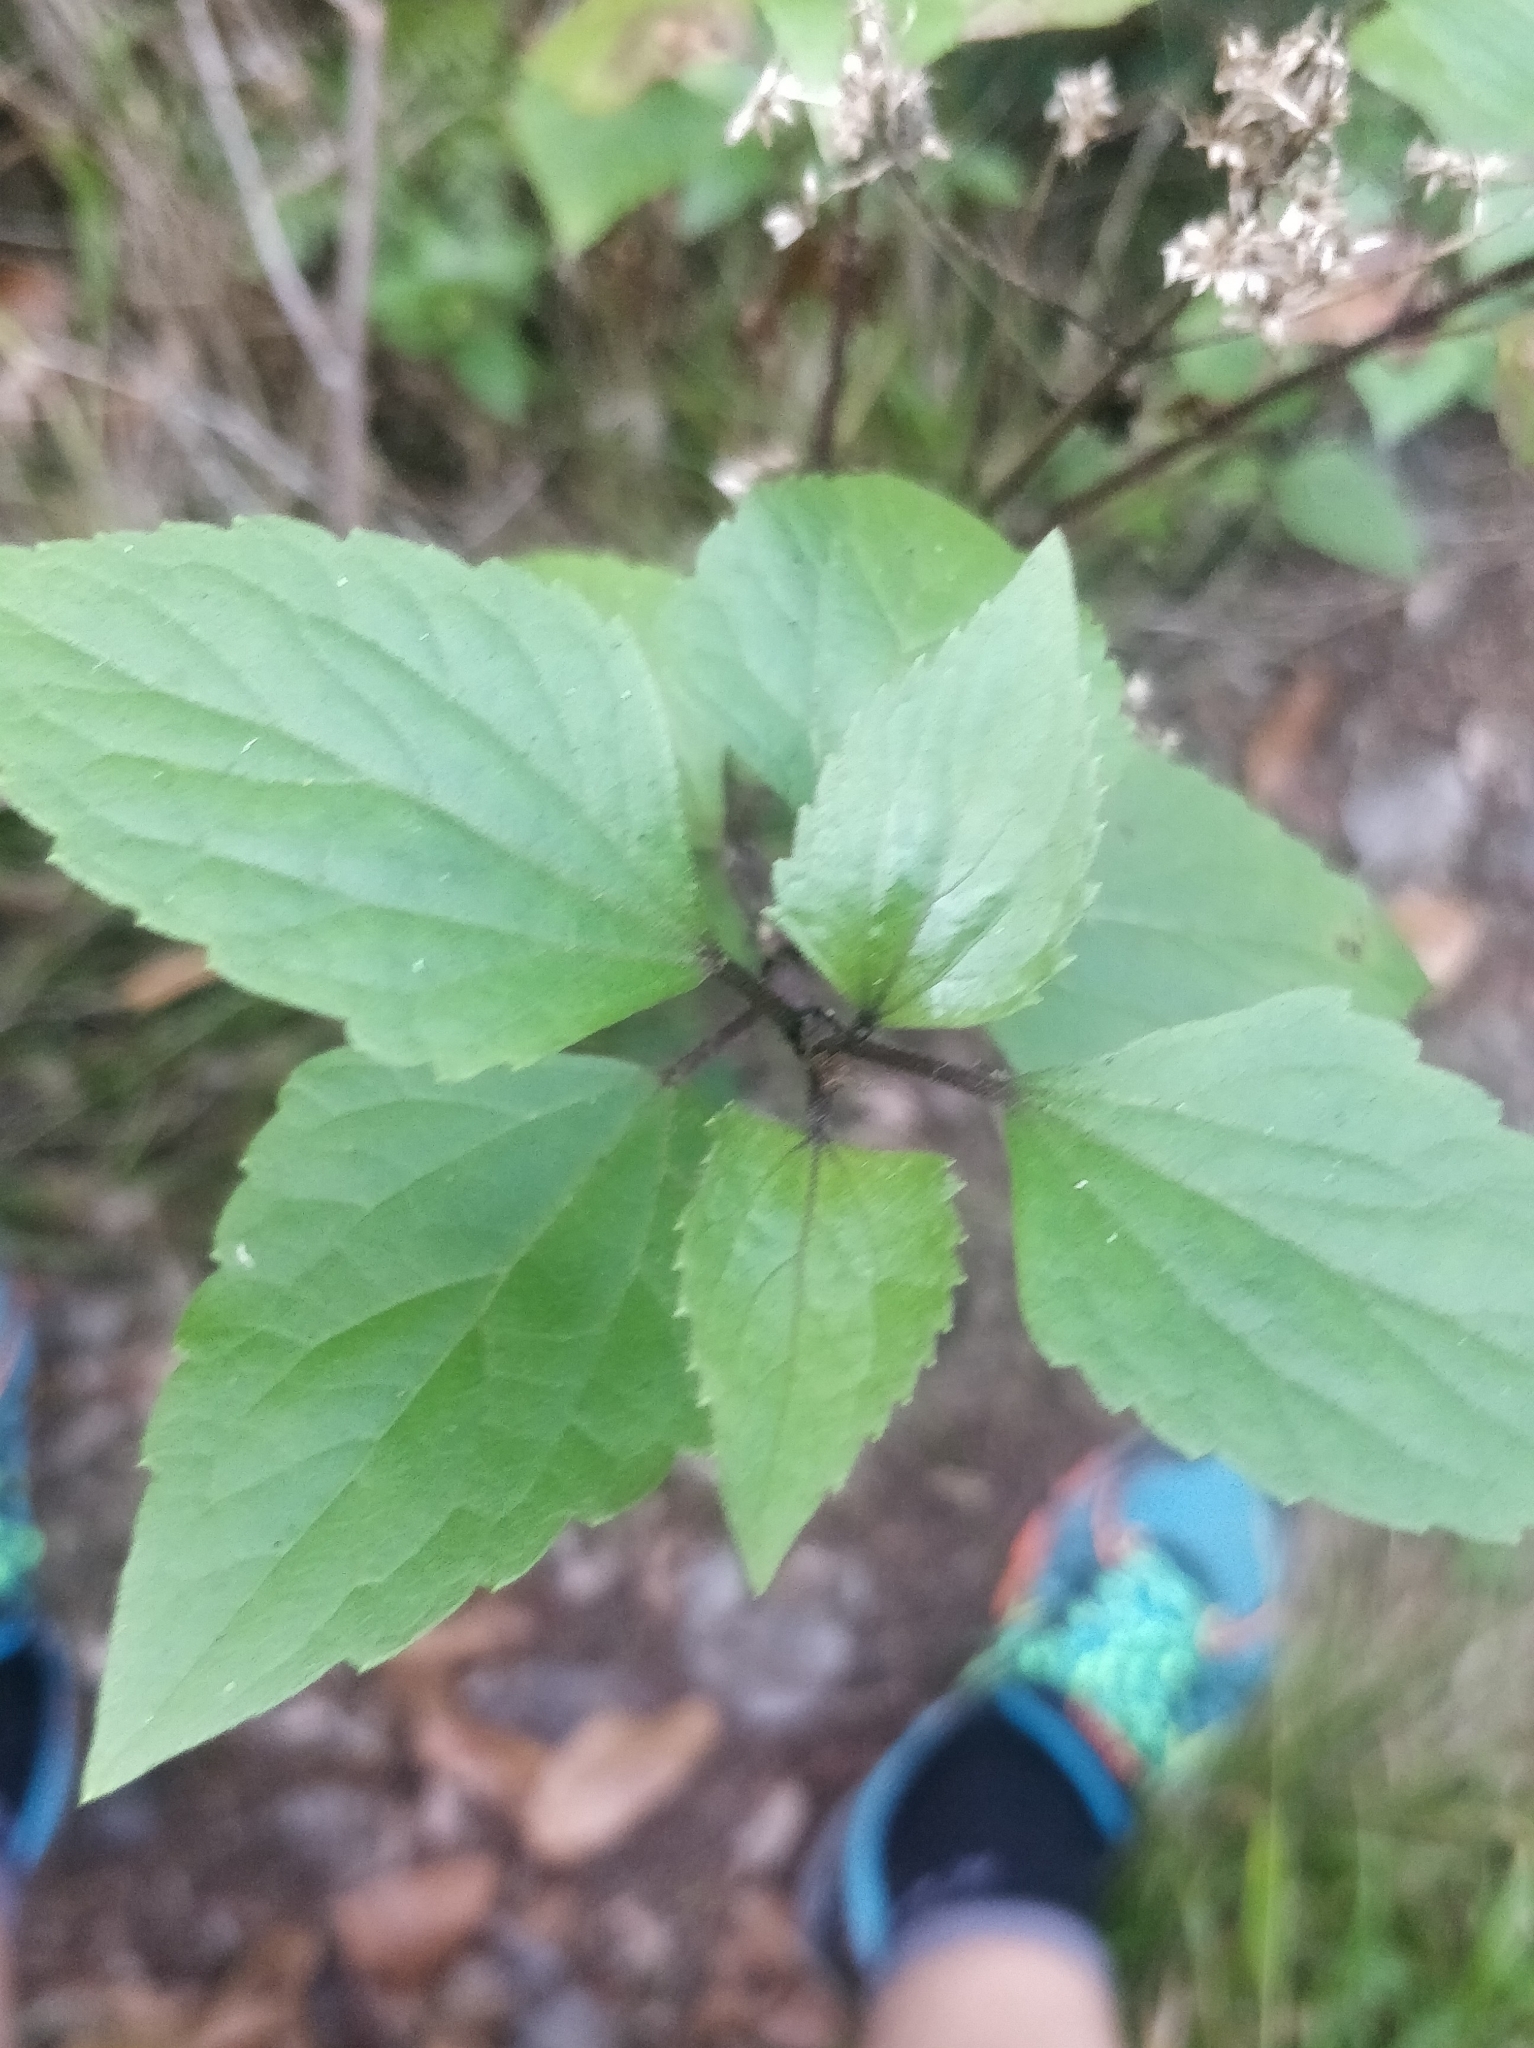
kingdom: Plantae
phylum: Tracheophyta
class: Magnoliopsida
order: Asterales
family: Asteraceae
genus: Ageratina
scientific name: Ageratina adenophora
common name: Sticky snakeroot
